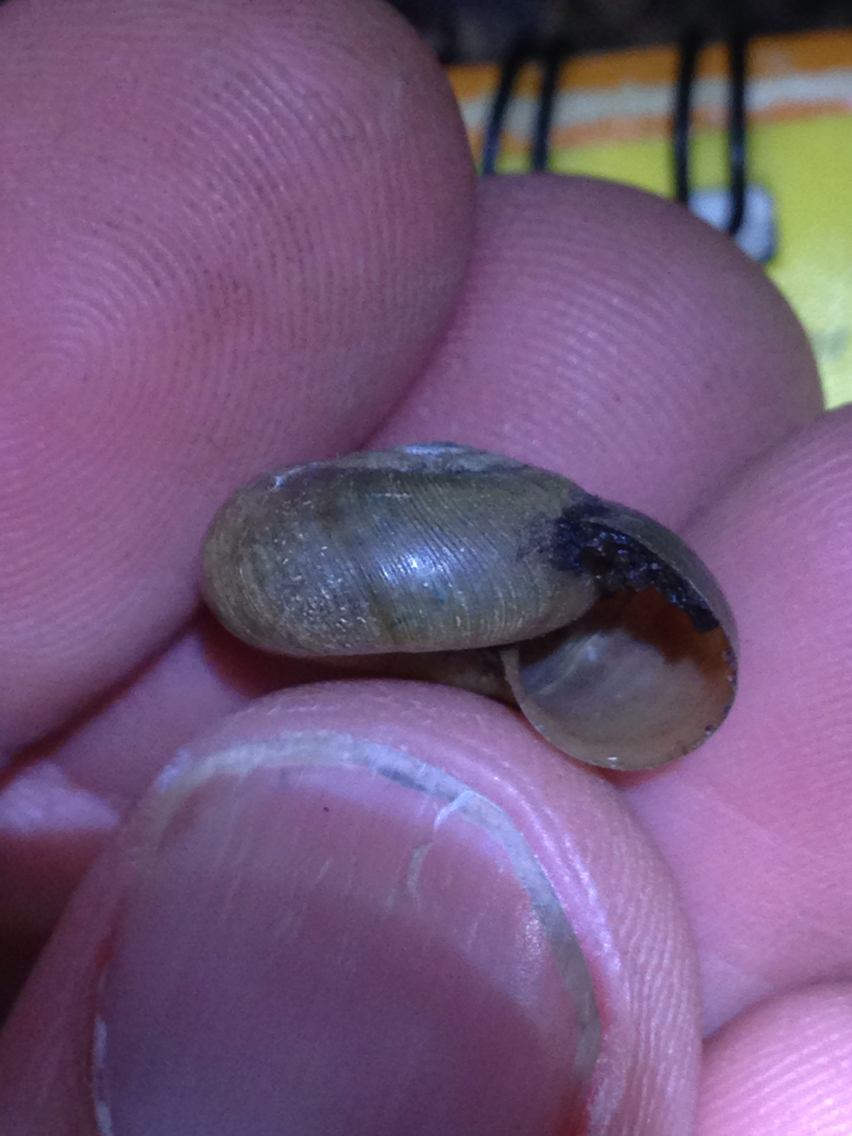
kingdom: Animalia
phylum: Mollusca
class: Gastropoda
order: Stylommatophora
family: Haplotrematidae
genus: Haplotrema
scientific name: Haplotrema minimum
